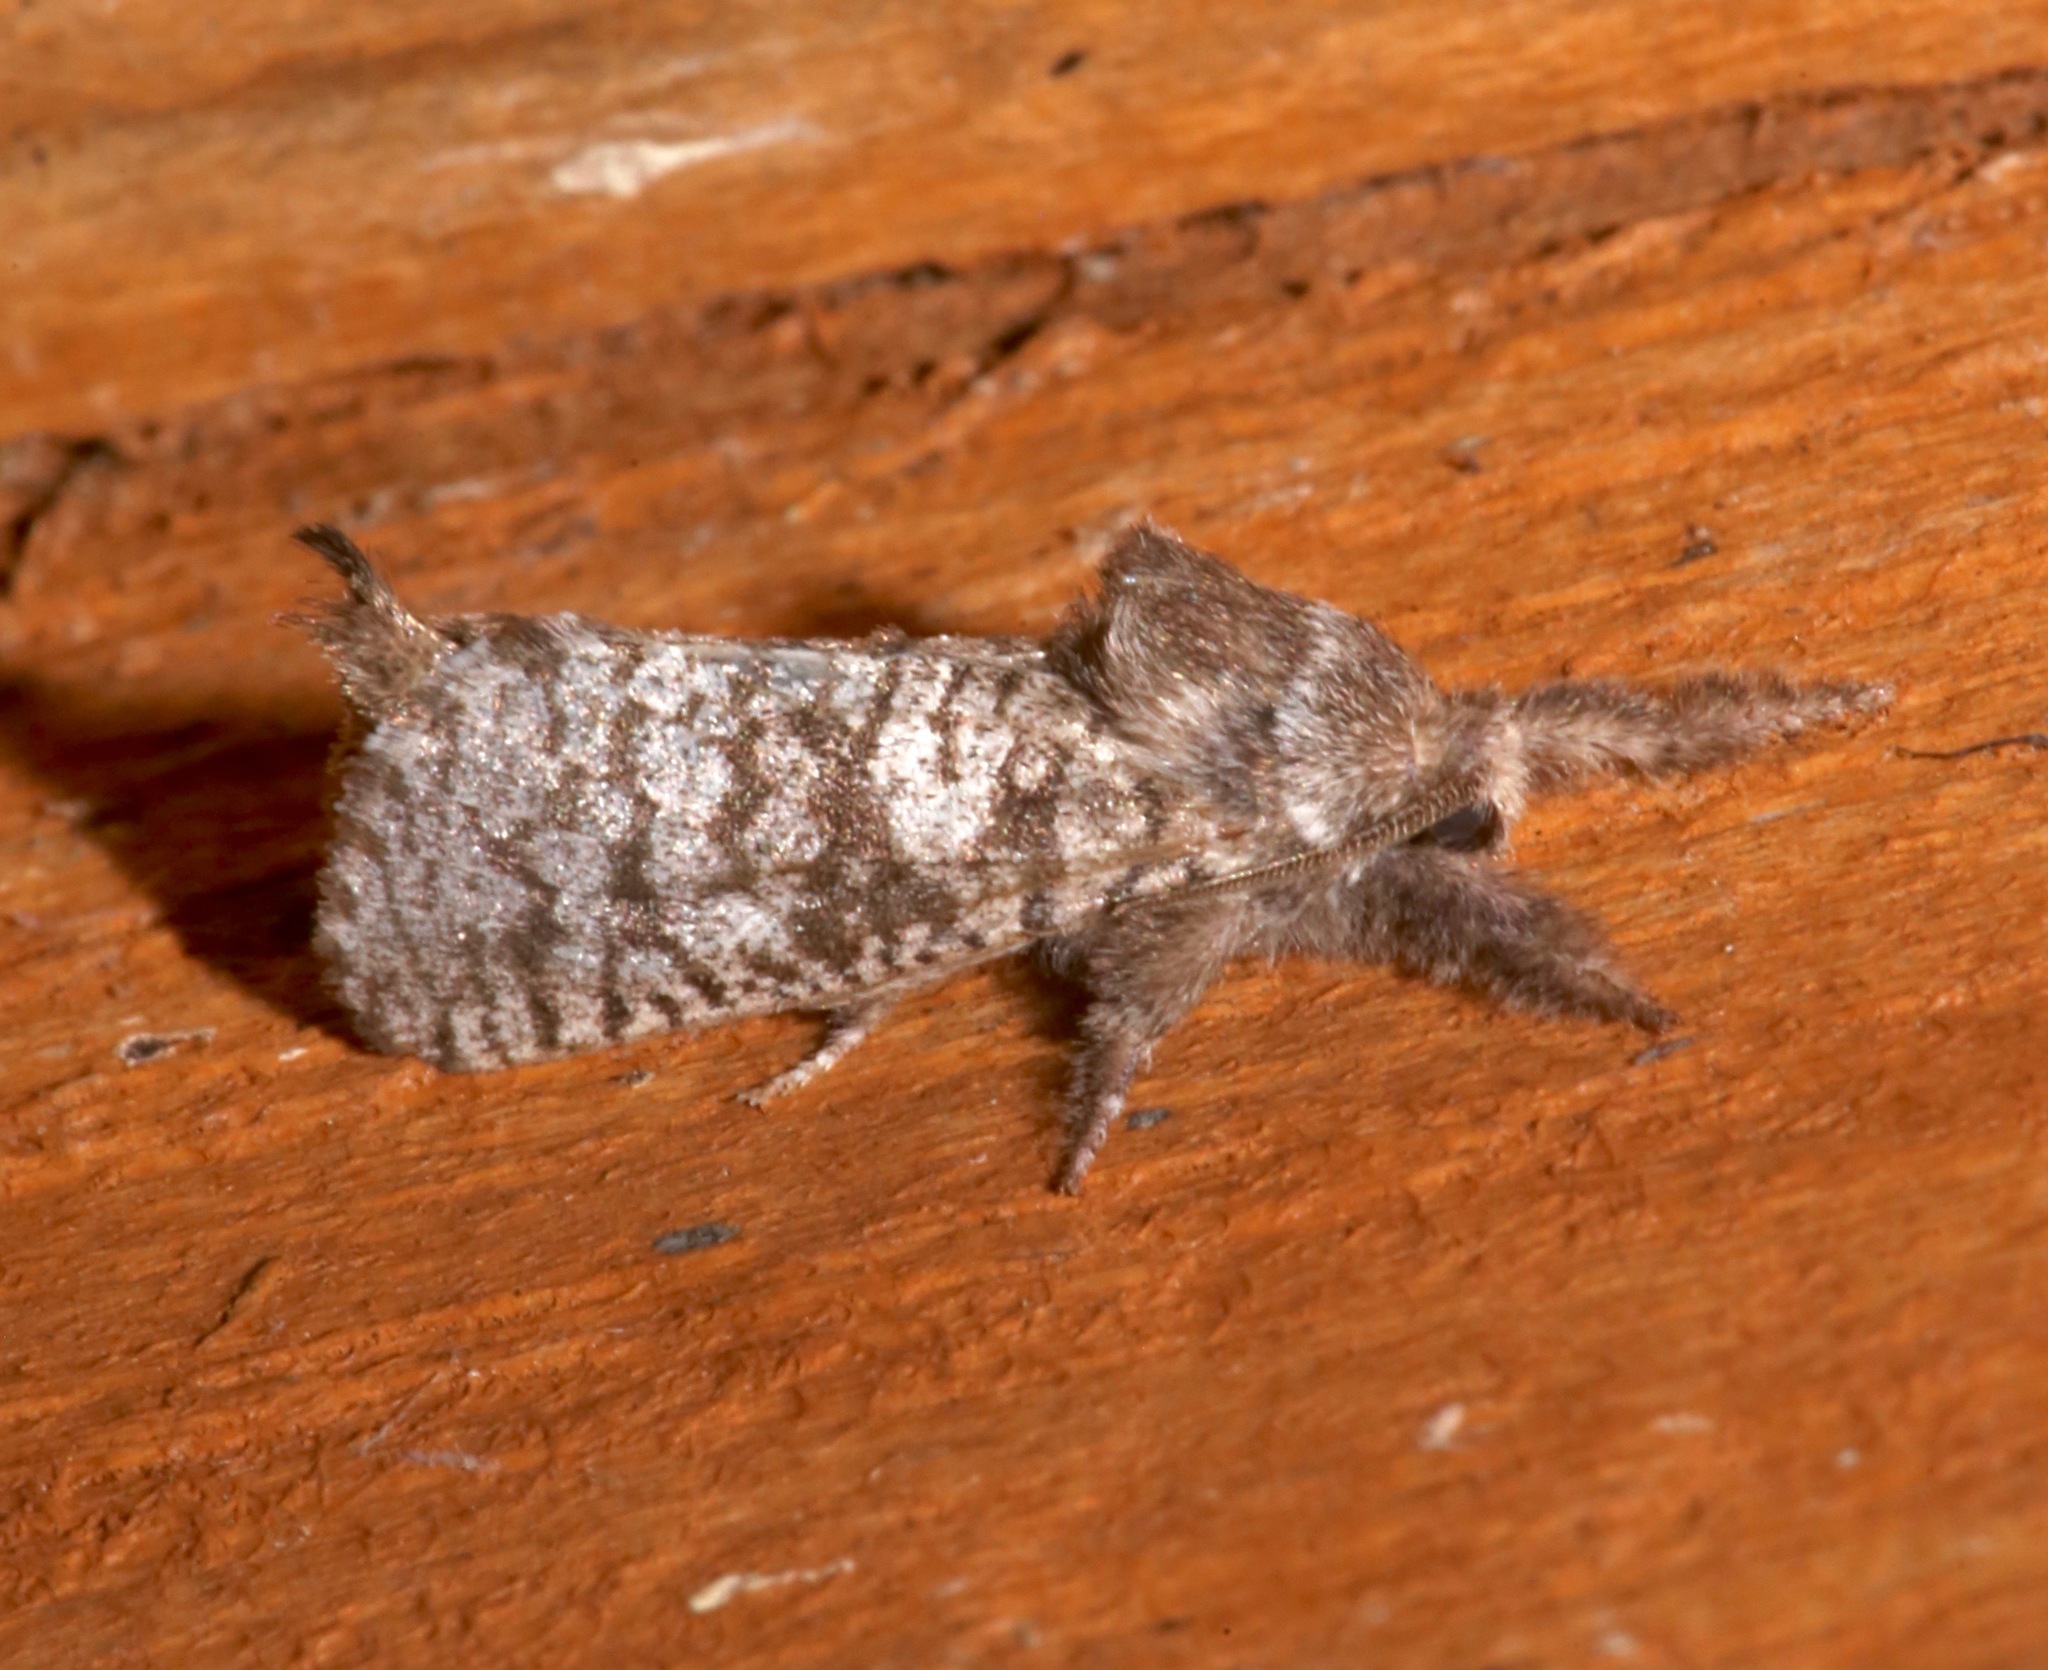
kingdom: Animalia
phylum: Arthropoda
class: Insecta
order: Lepidoptera
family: Cossidae
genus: Givira
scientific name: Givira francesca
